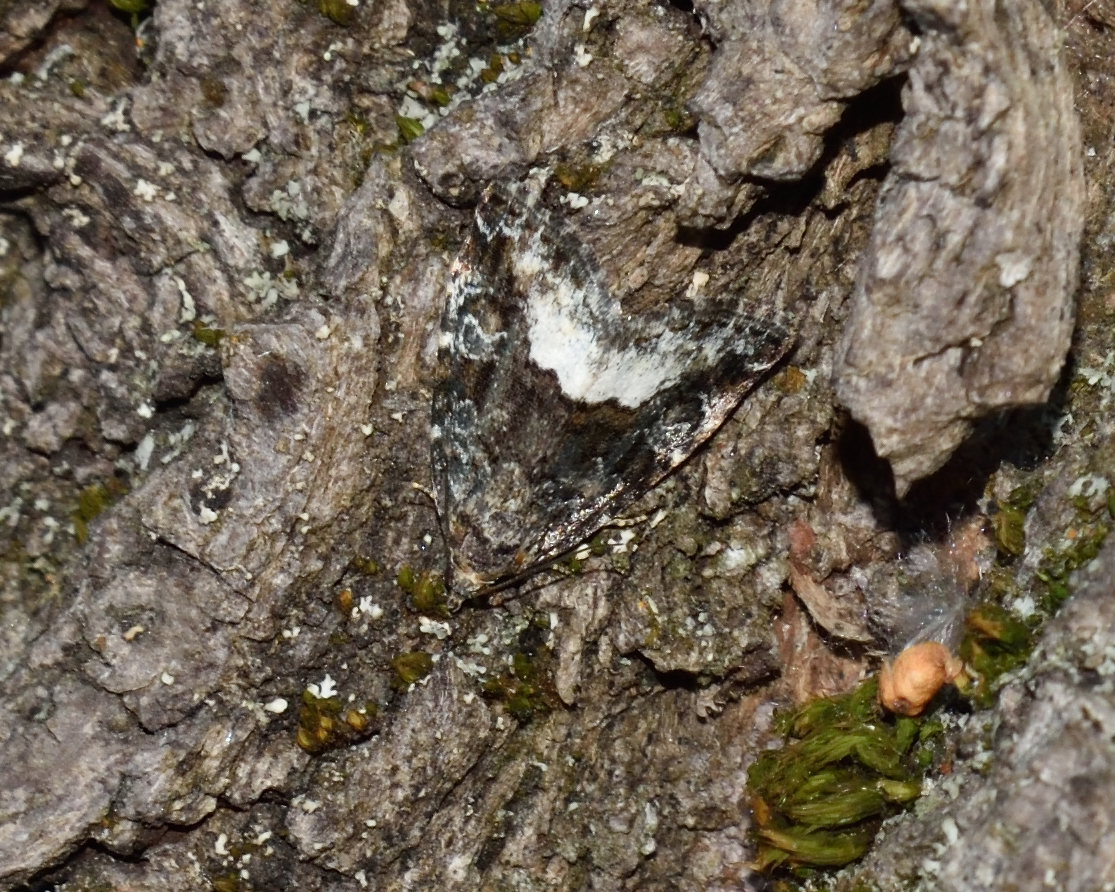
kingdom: Animalia
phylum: Arthropoda
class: Insecta
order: Lepidoptera
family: Noctuidae
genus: Deltote
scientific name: Deltote pygarga
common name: Marbled white spot
